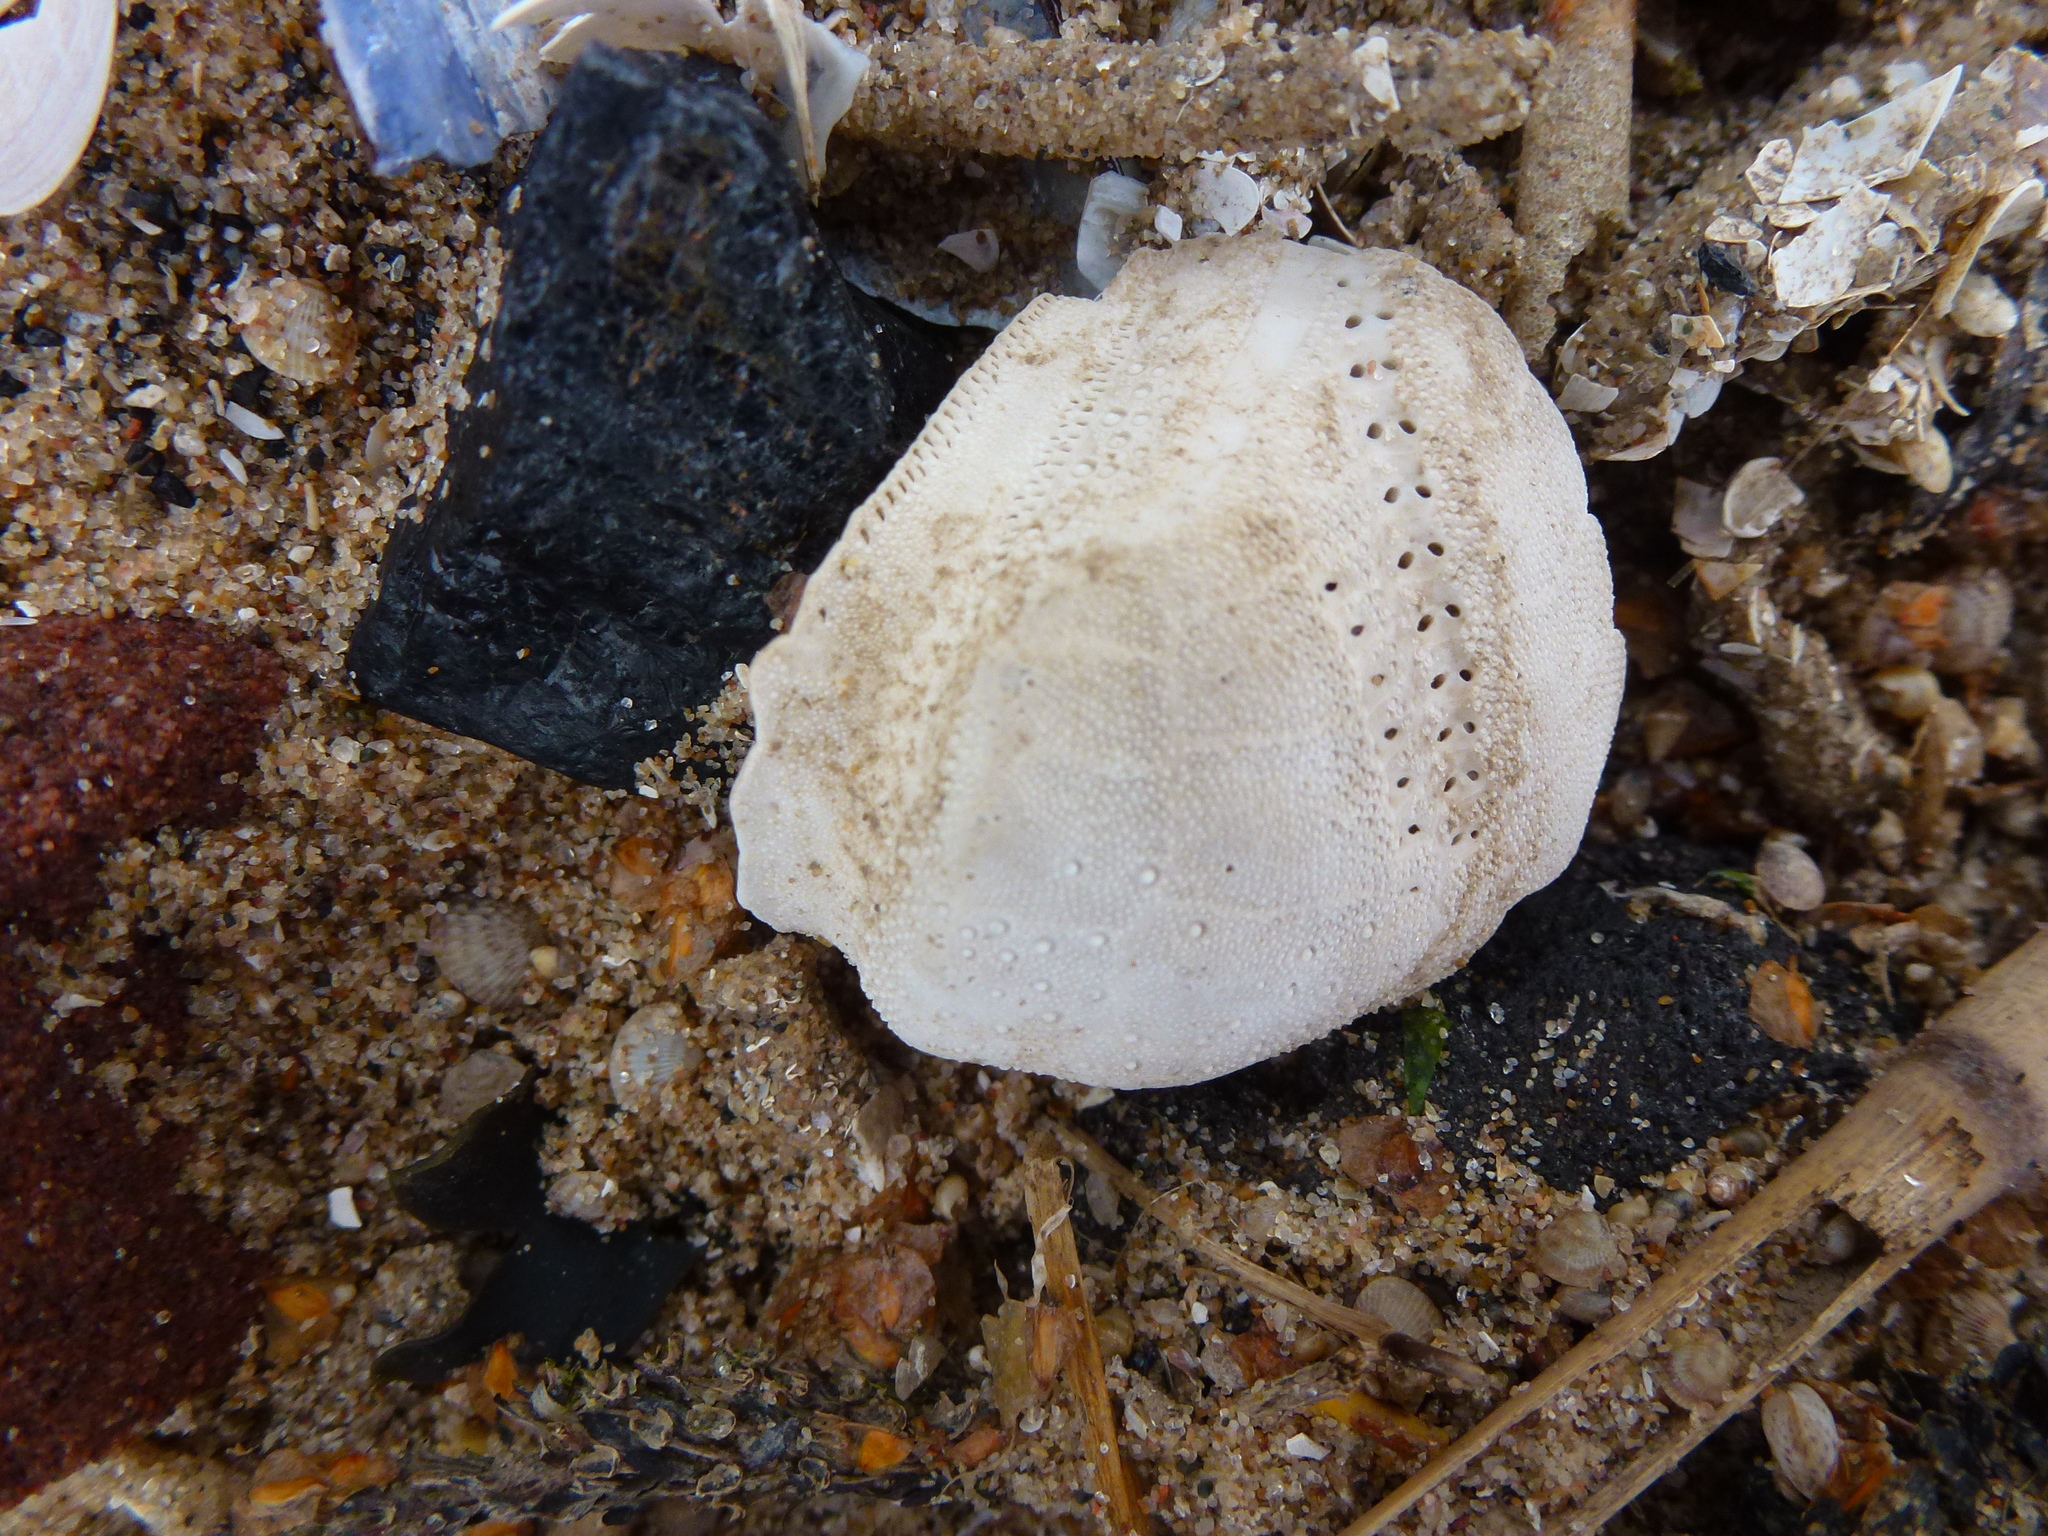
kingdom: Animalia
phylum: Echinodermata
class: Echinoidea
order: Spatangoida
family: Loveniidae
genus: Echinocardium
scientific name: Echinocardium cordatum
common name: Heart-urchin
